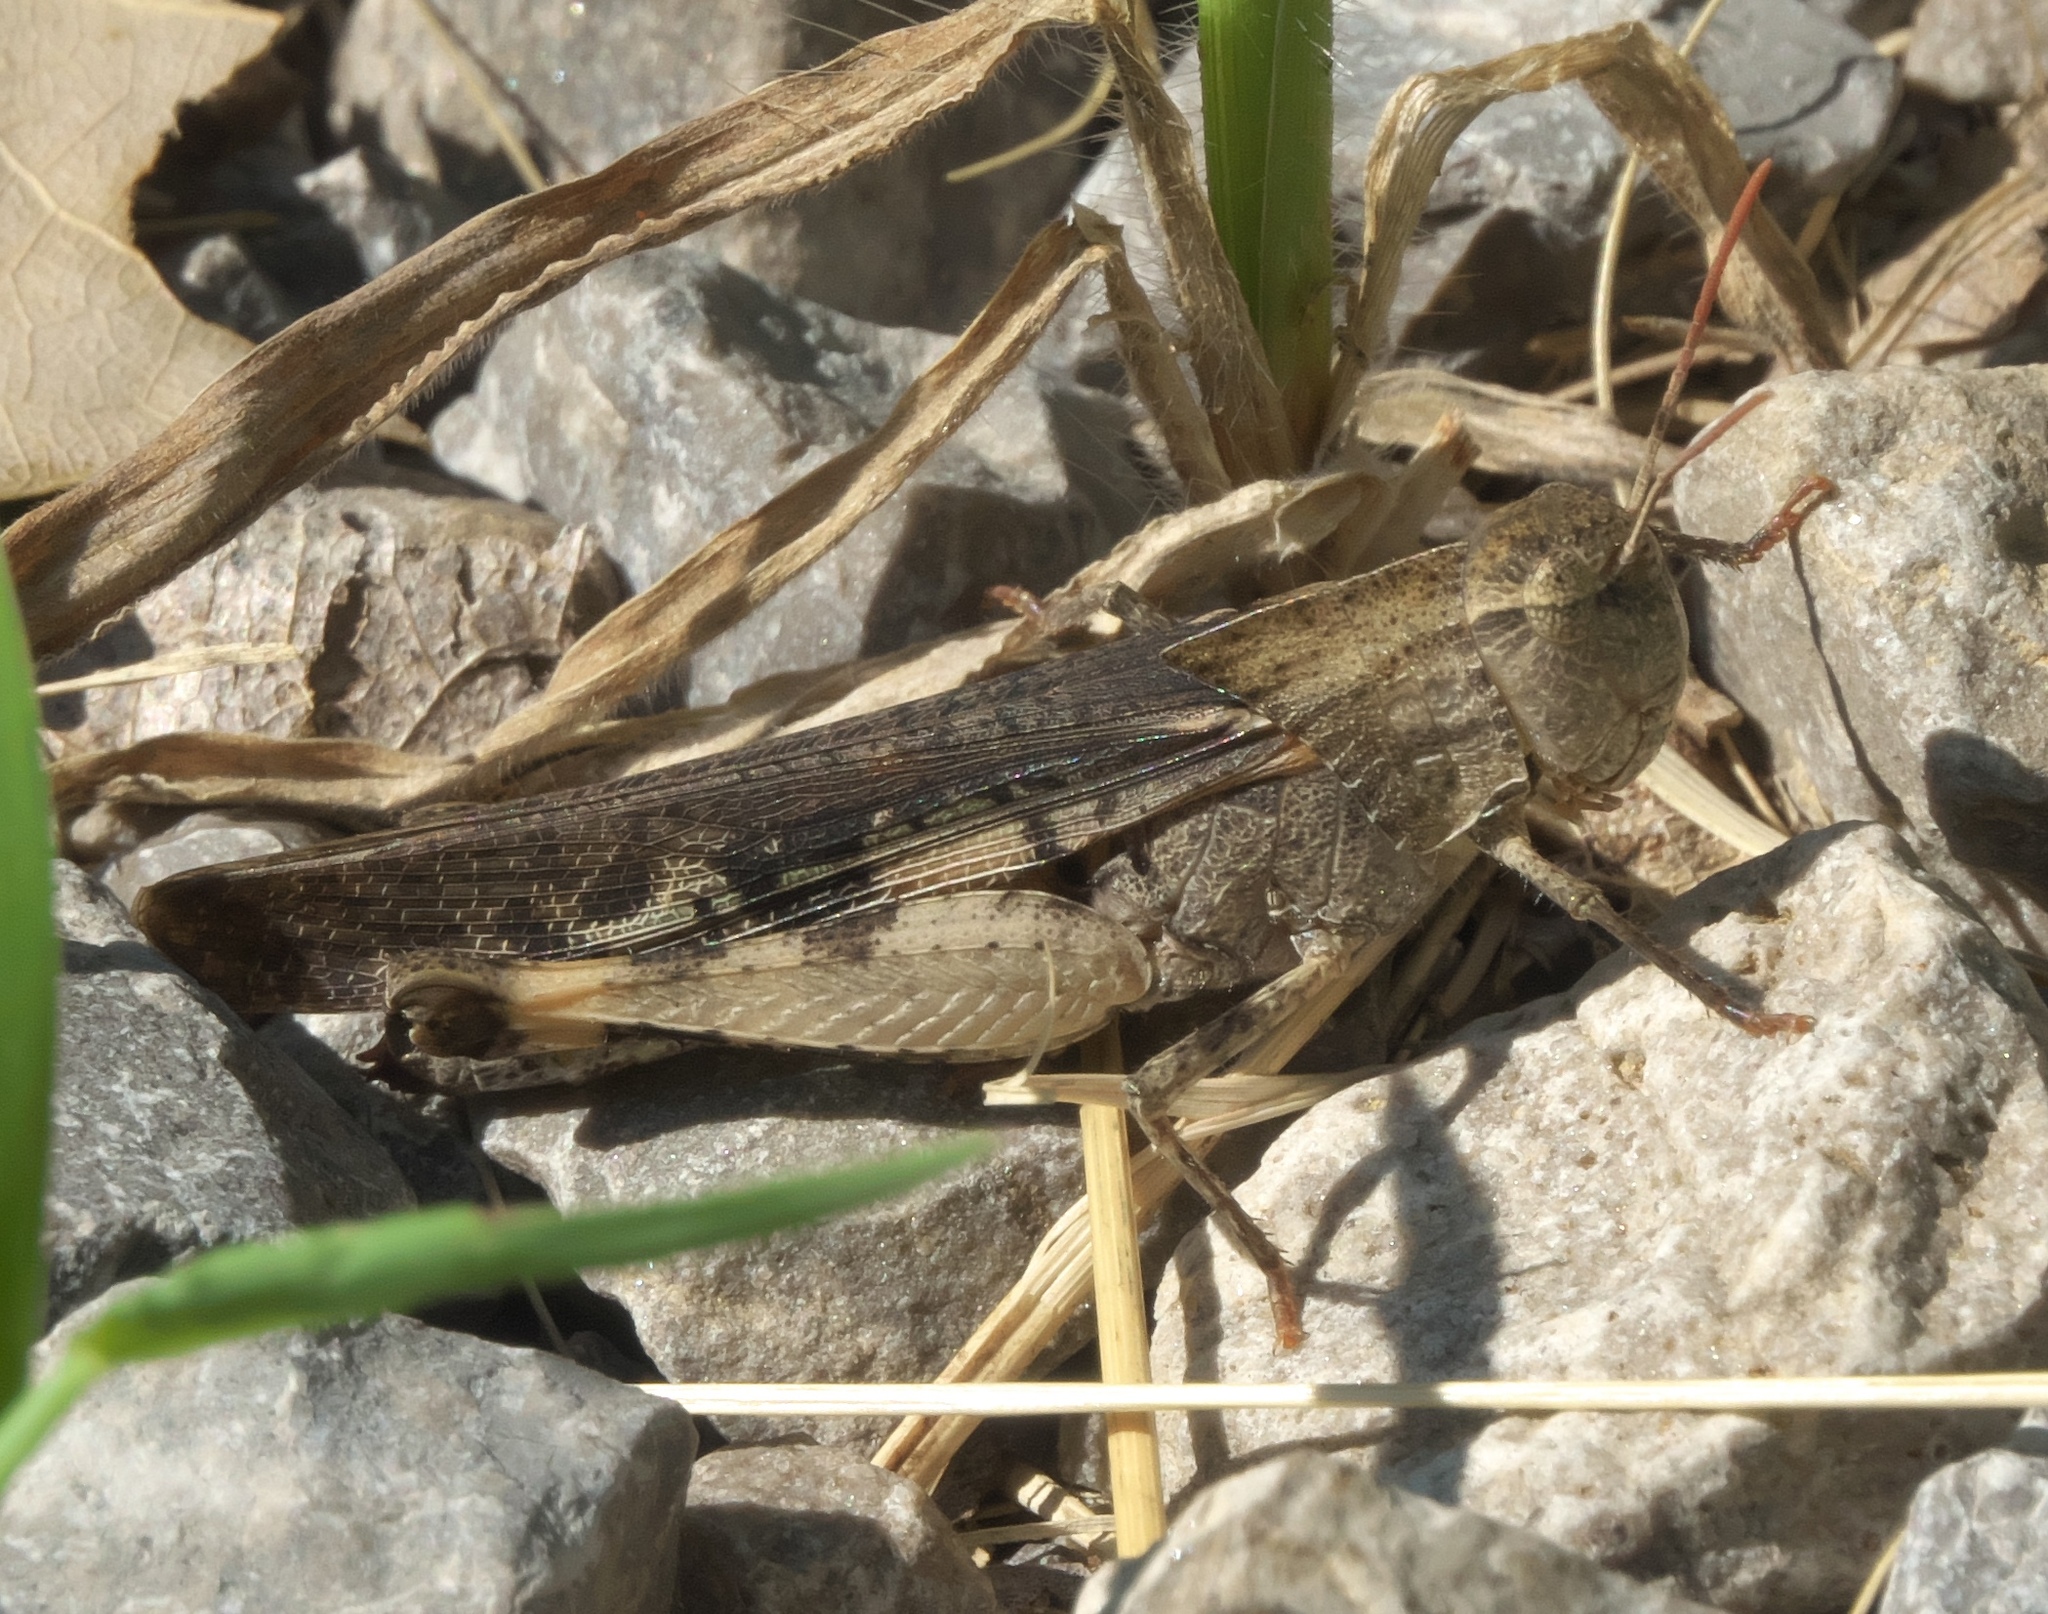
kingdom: Animalia
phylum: Arthropoda
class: Insecta
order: Orthoptera
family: Acrididae
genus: Chortophaga
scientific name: Chortophaga viridifasciata
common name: Green-striped grasshopper
